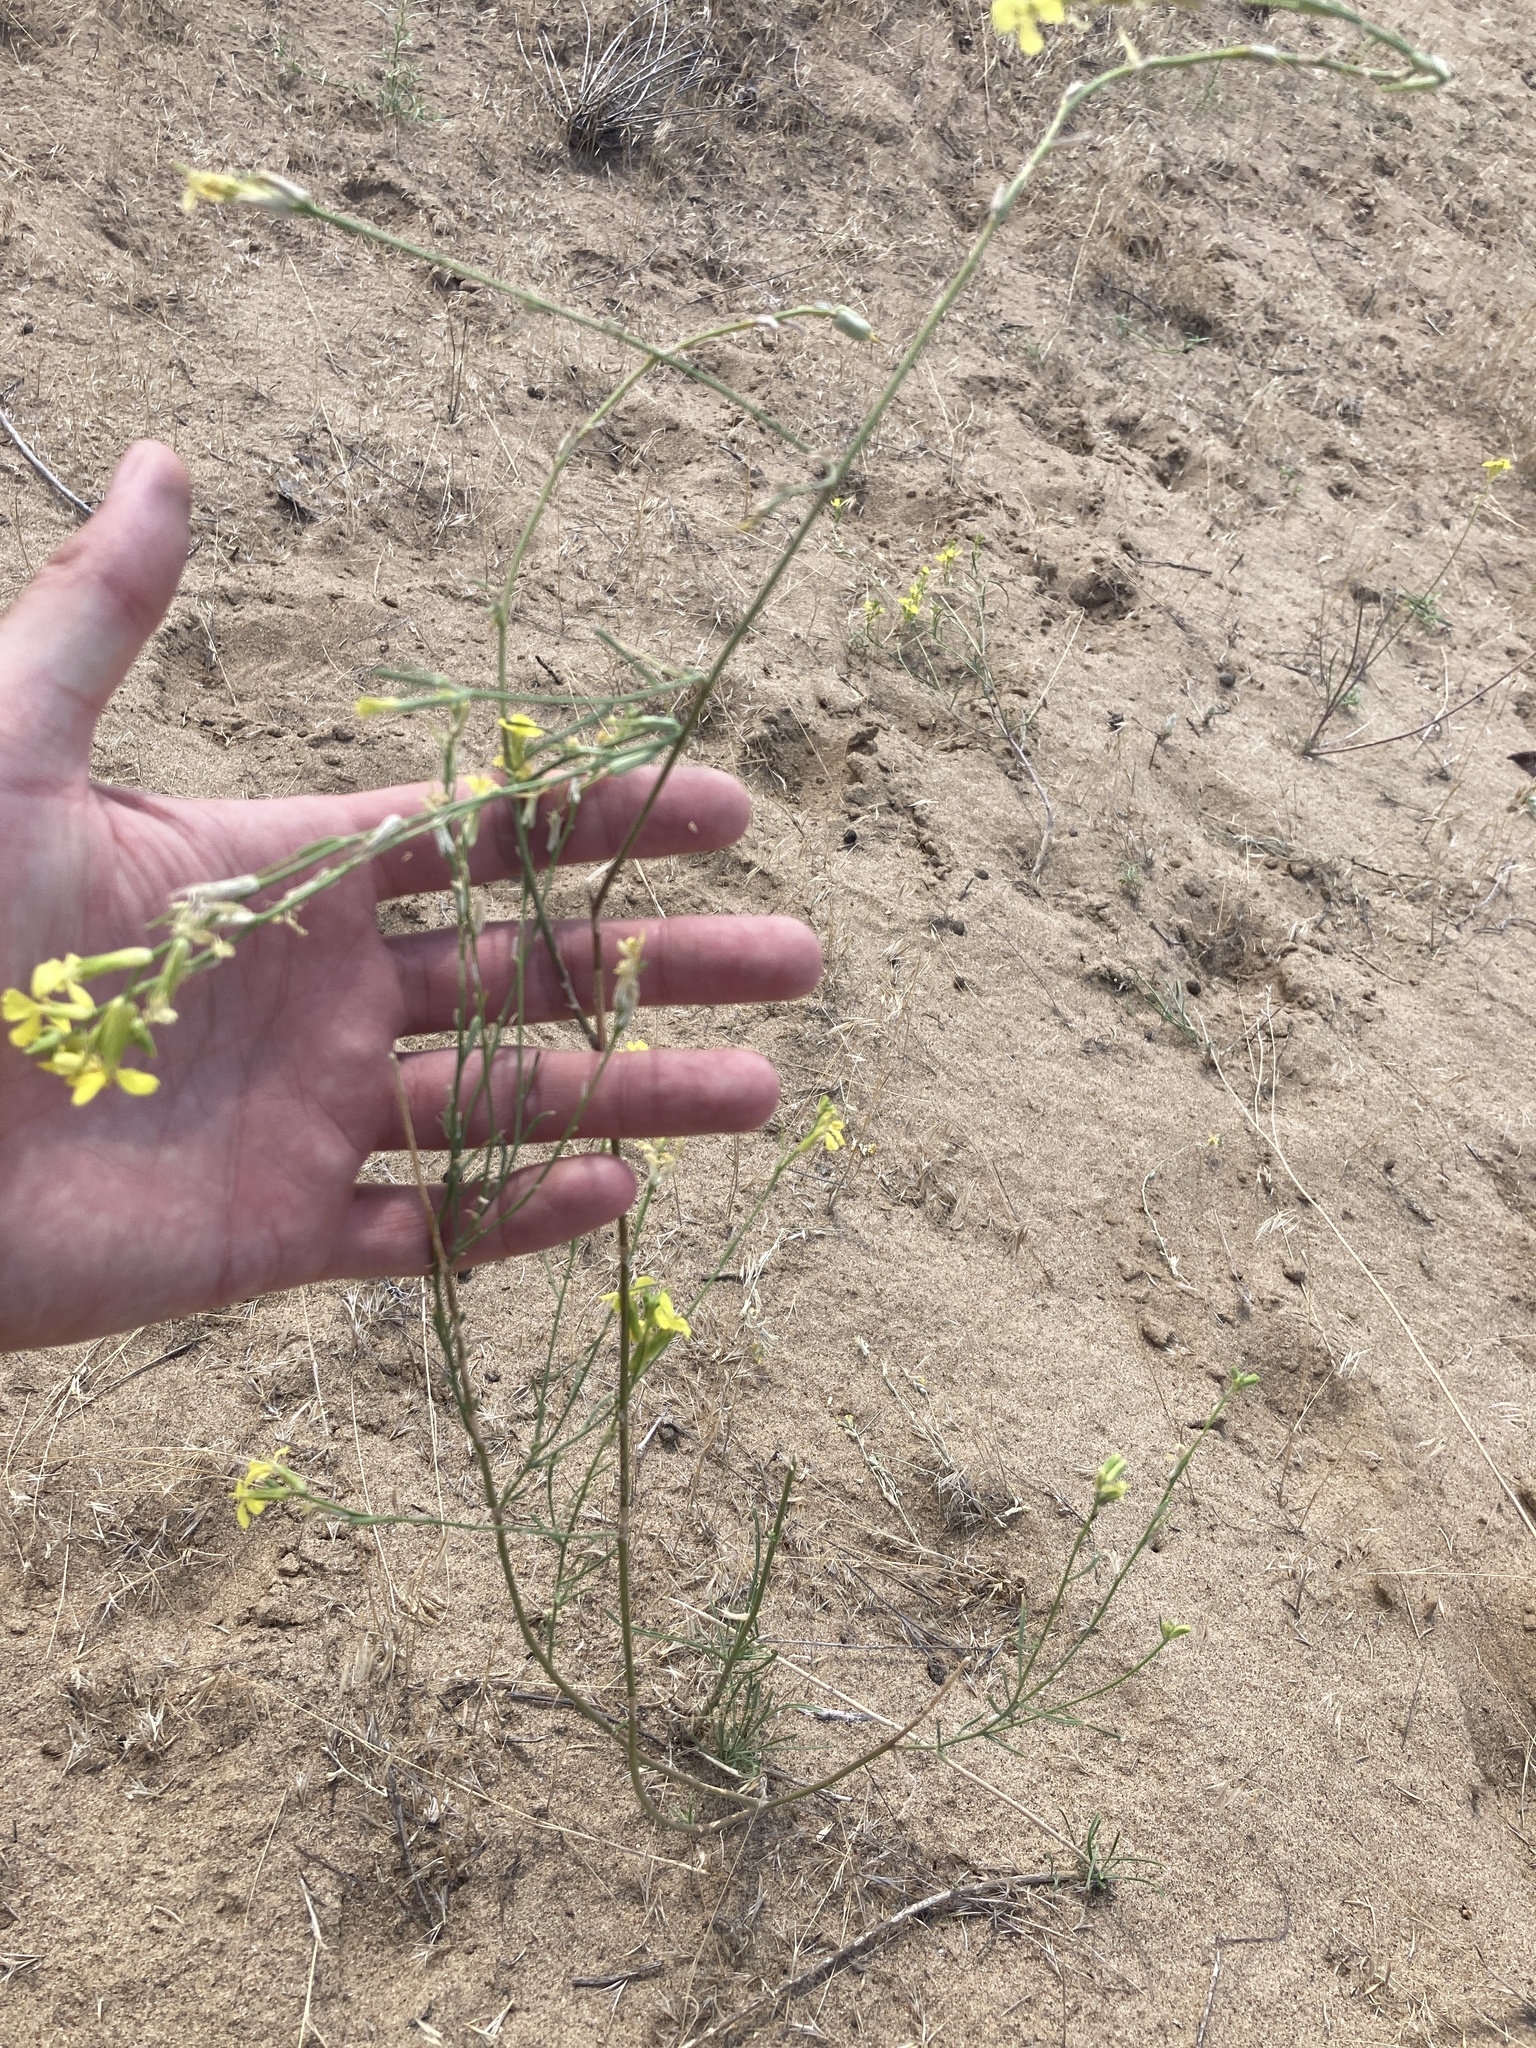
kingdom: Plantae
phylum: Tracheophyta
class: Magnoliopsida
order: Brassicales
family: Brassicaceae
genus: Erysimum
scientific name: Erysimum diffusum
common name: Diffuse wallflower
